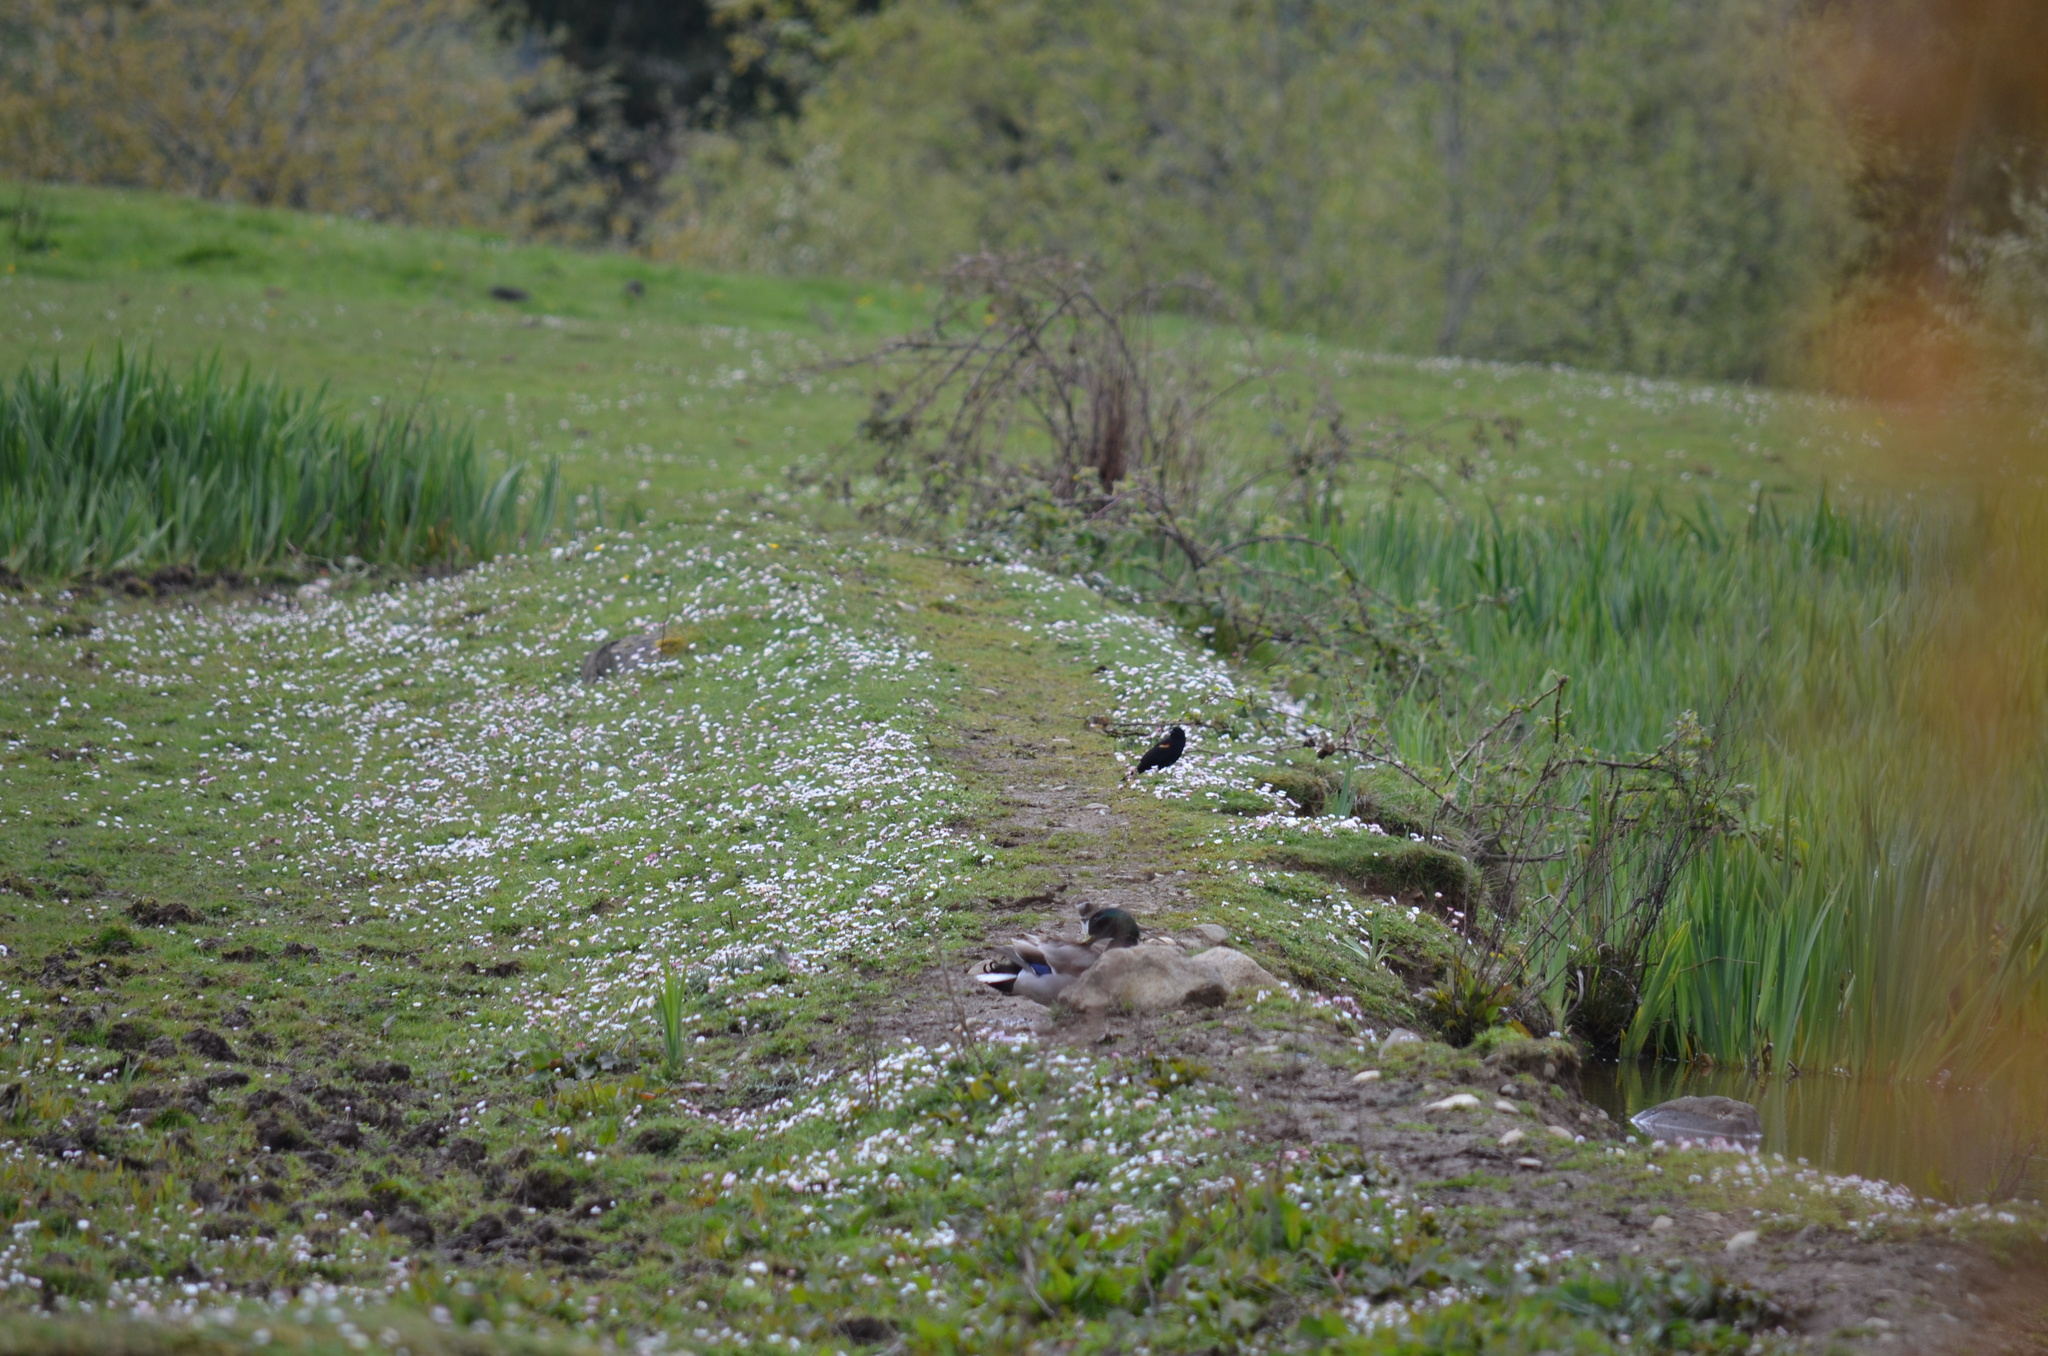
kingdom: Animalia
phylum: Chordata
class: Aves
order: Passeriformes
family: Icteridae
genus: Agelaius
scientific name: Agelaius phoeniceus
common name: Red-winged blackbird
